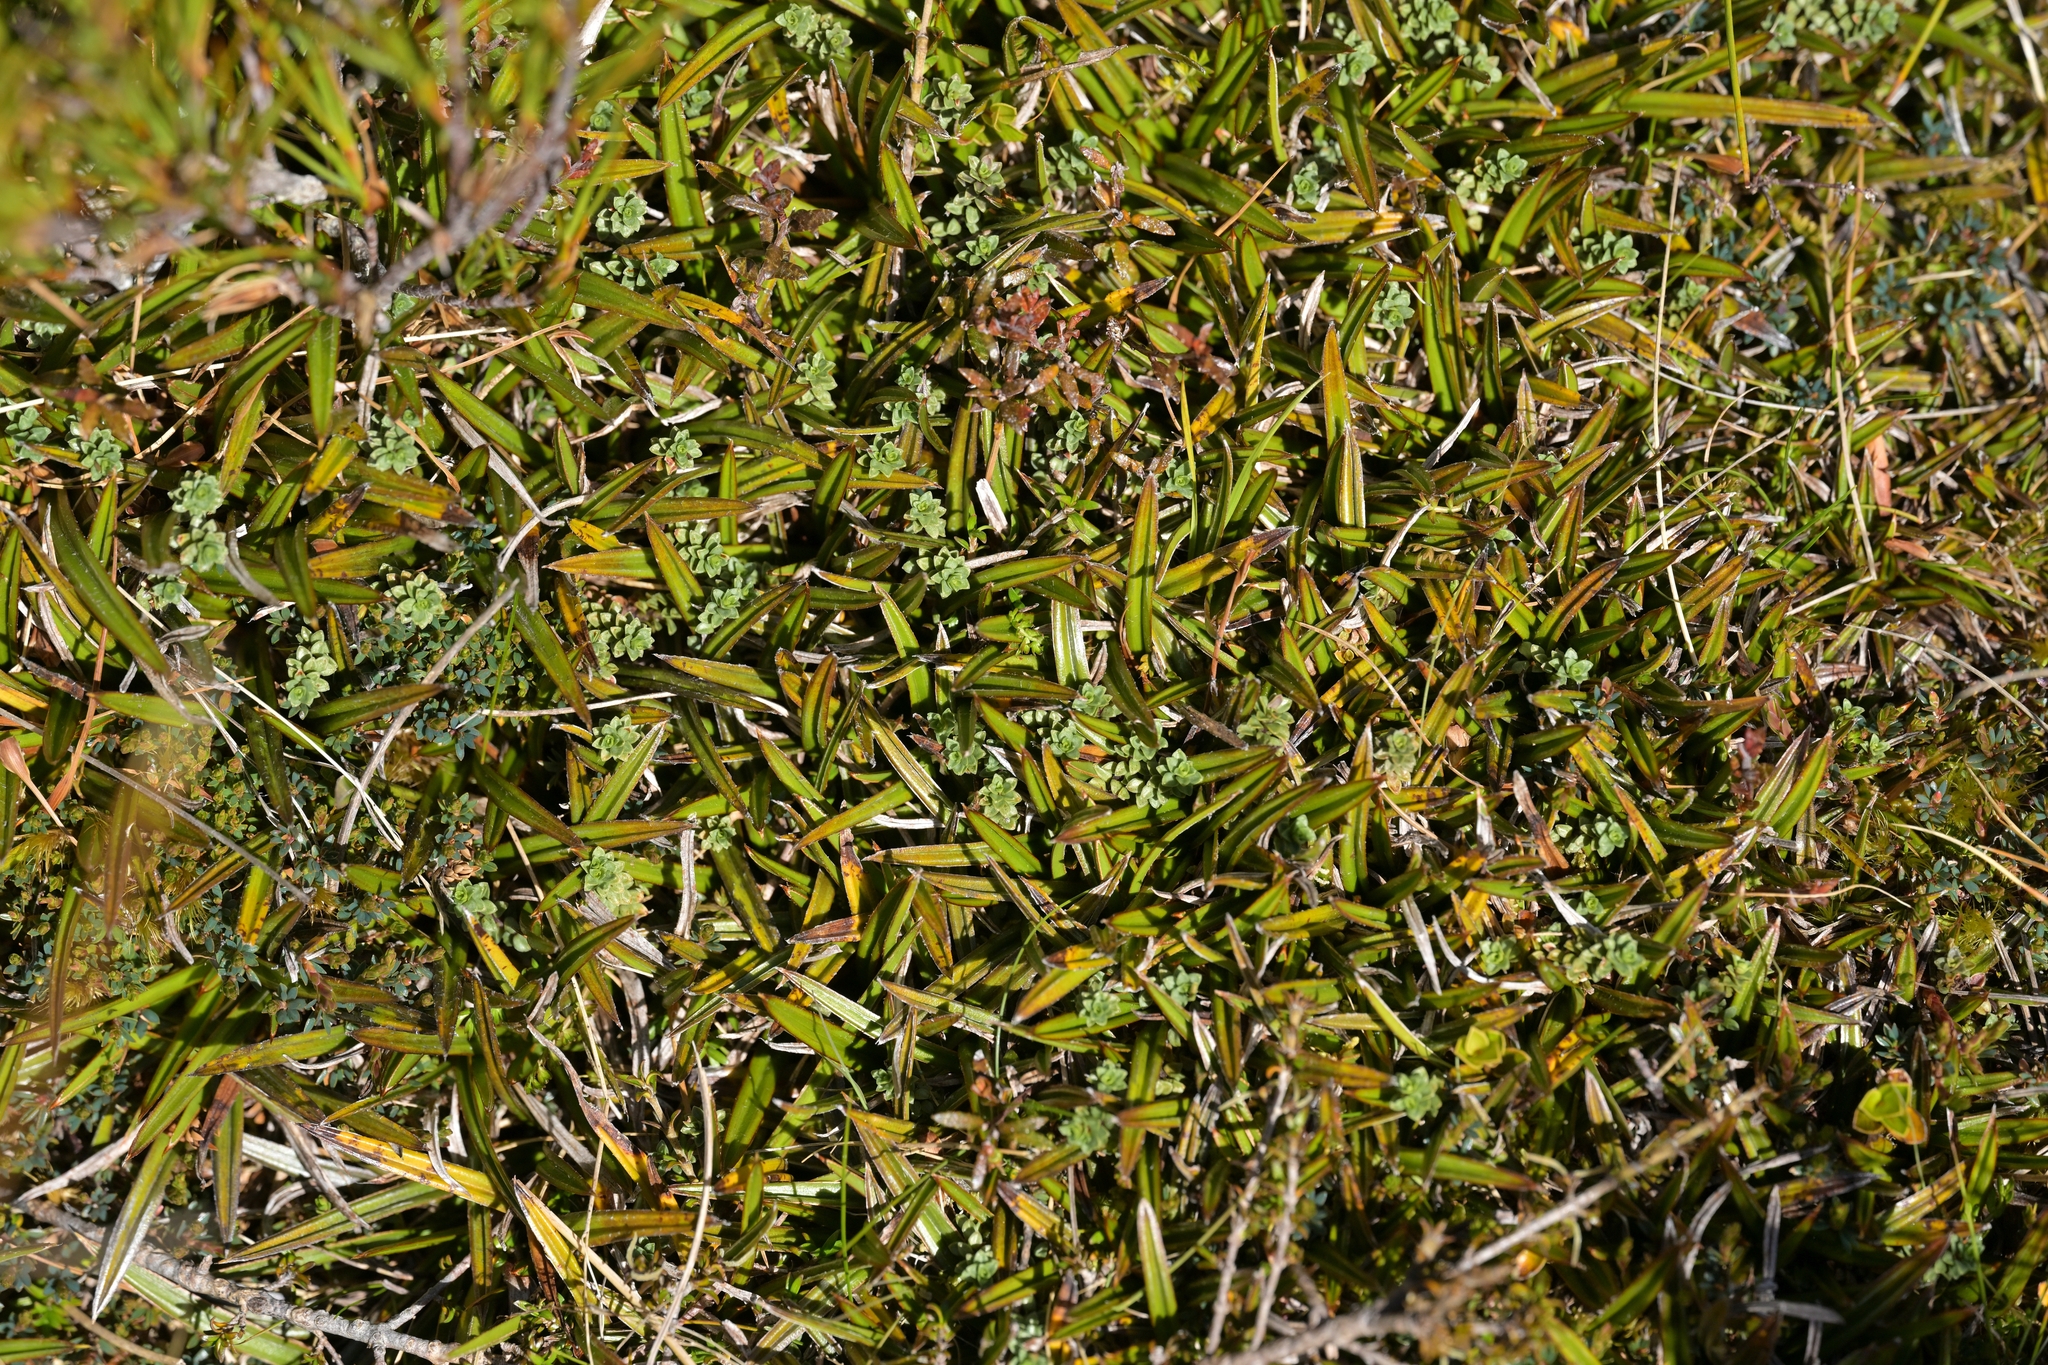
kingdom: Plantae
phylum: Tracheophyta
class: Liliopsida
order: Asparagales
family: Asteliaceae
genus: Astelia
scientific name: Astelia linearis
